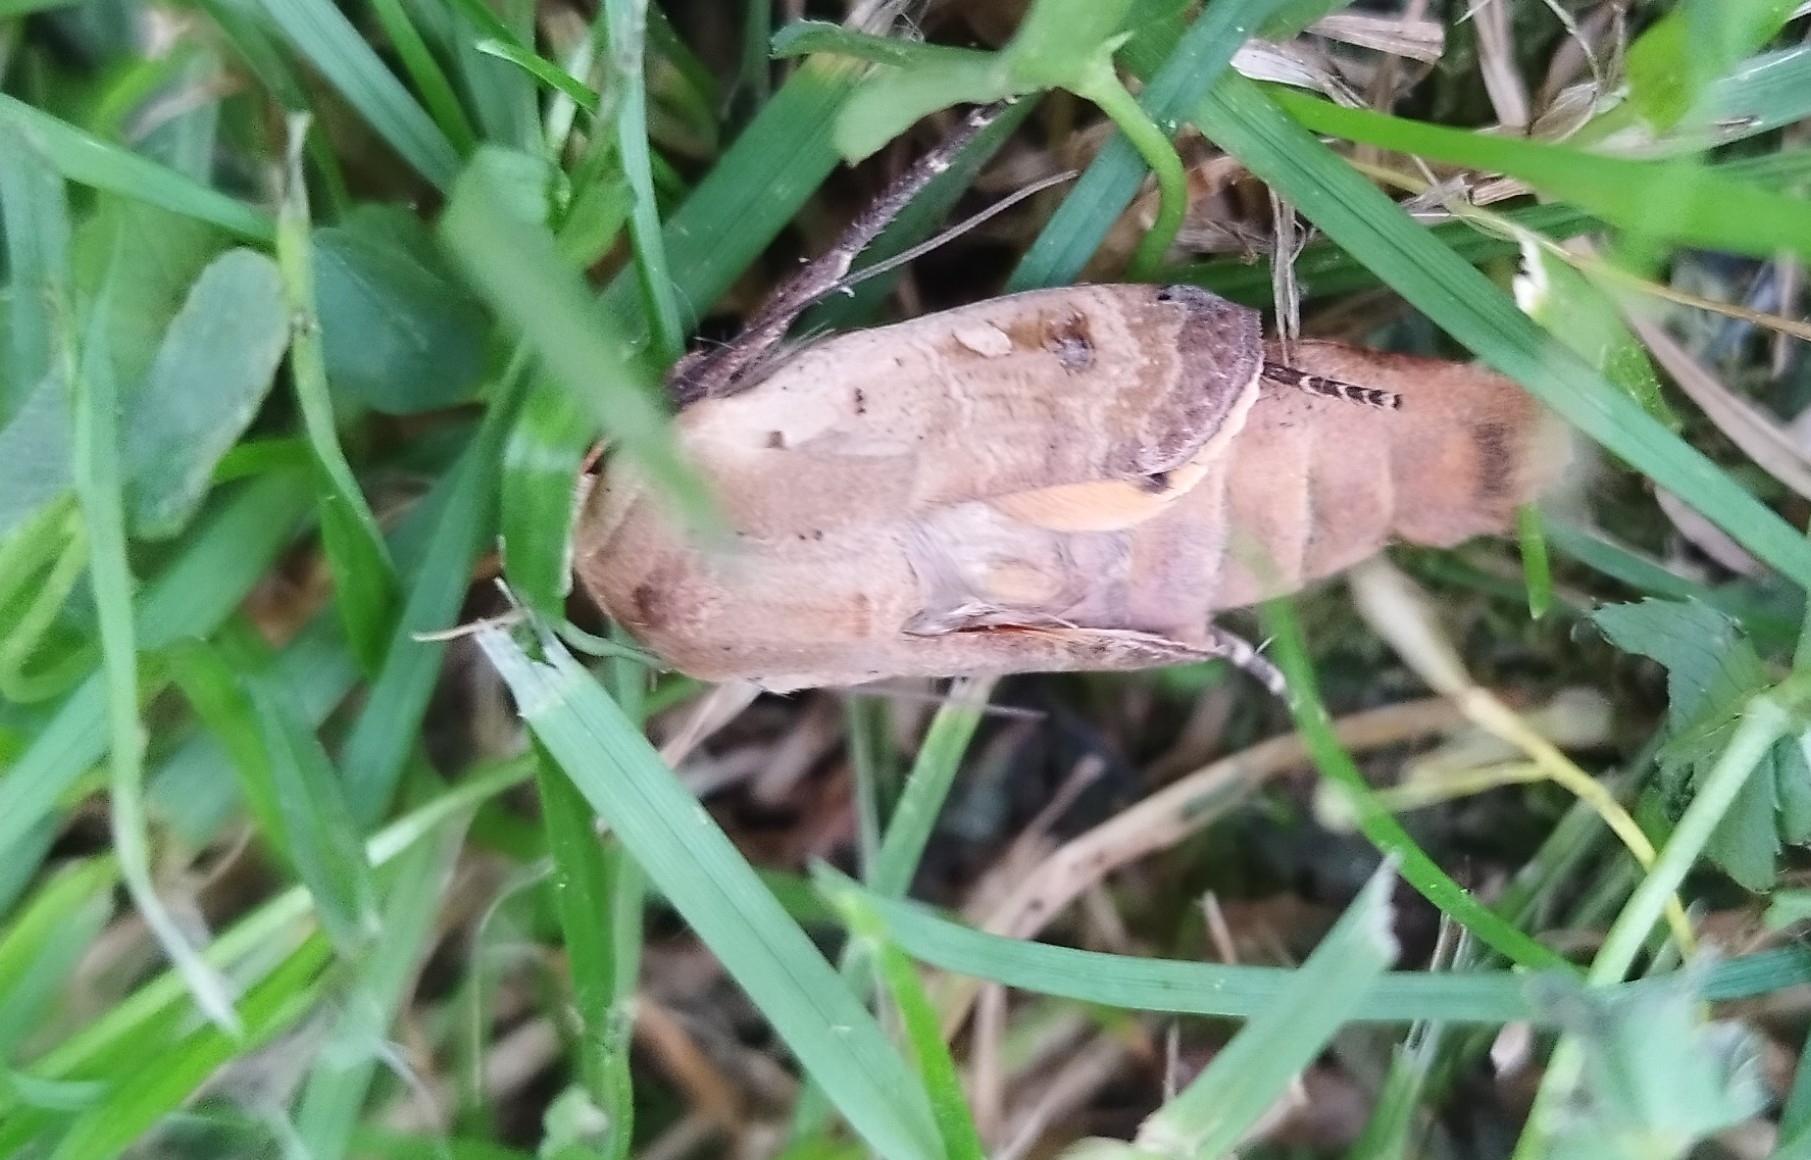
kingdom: Animalia
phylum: Arthropoda
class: Insecta
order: Lepidoptera
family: Noctuidae
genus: Noctua
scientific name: Noctua pronuba
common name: Large yellow underwing
